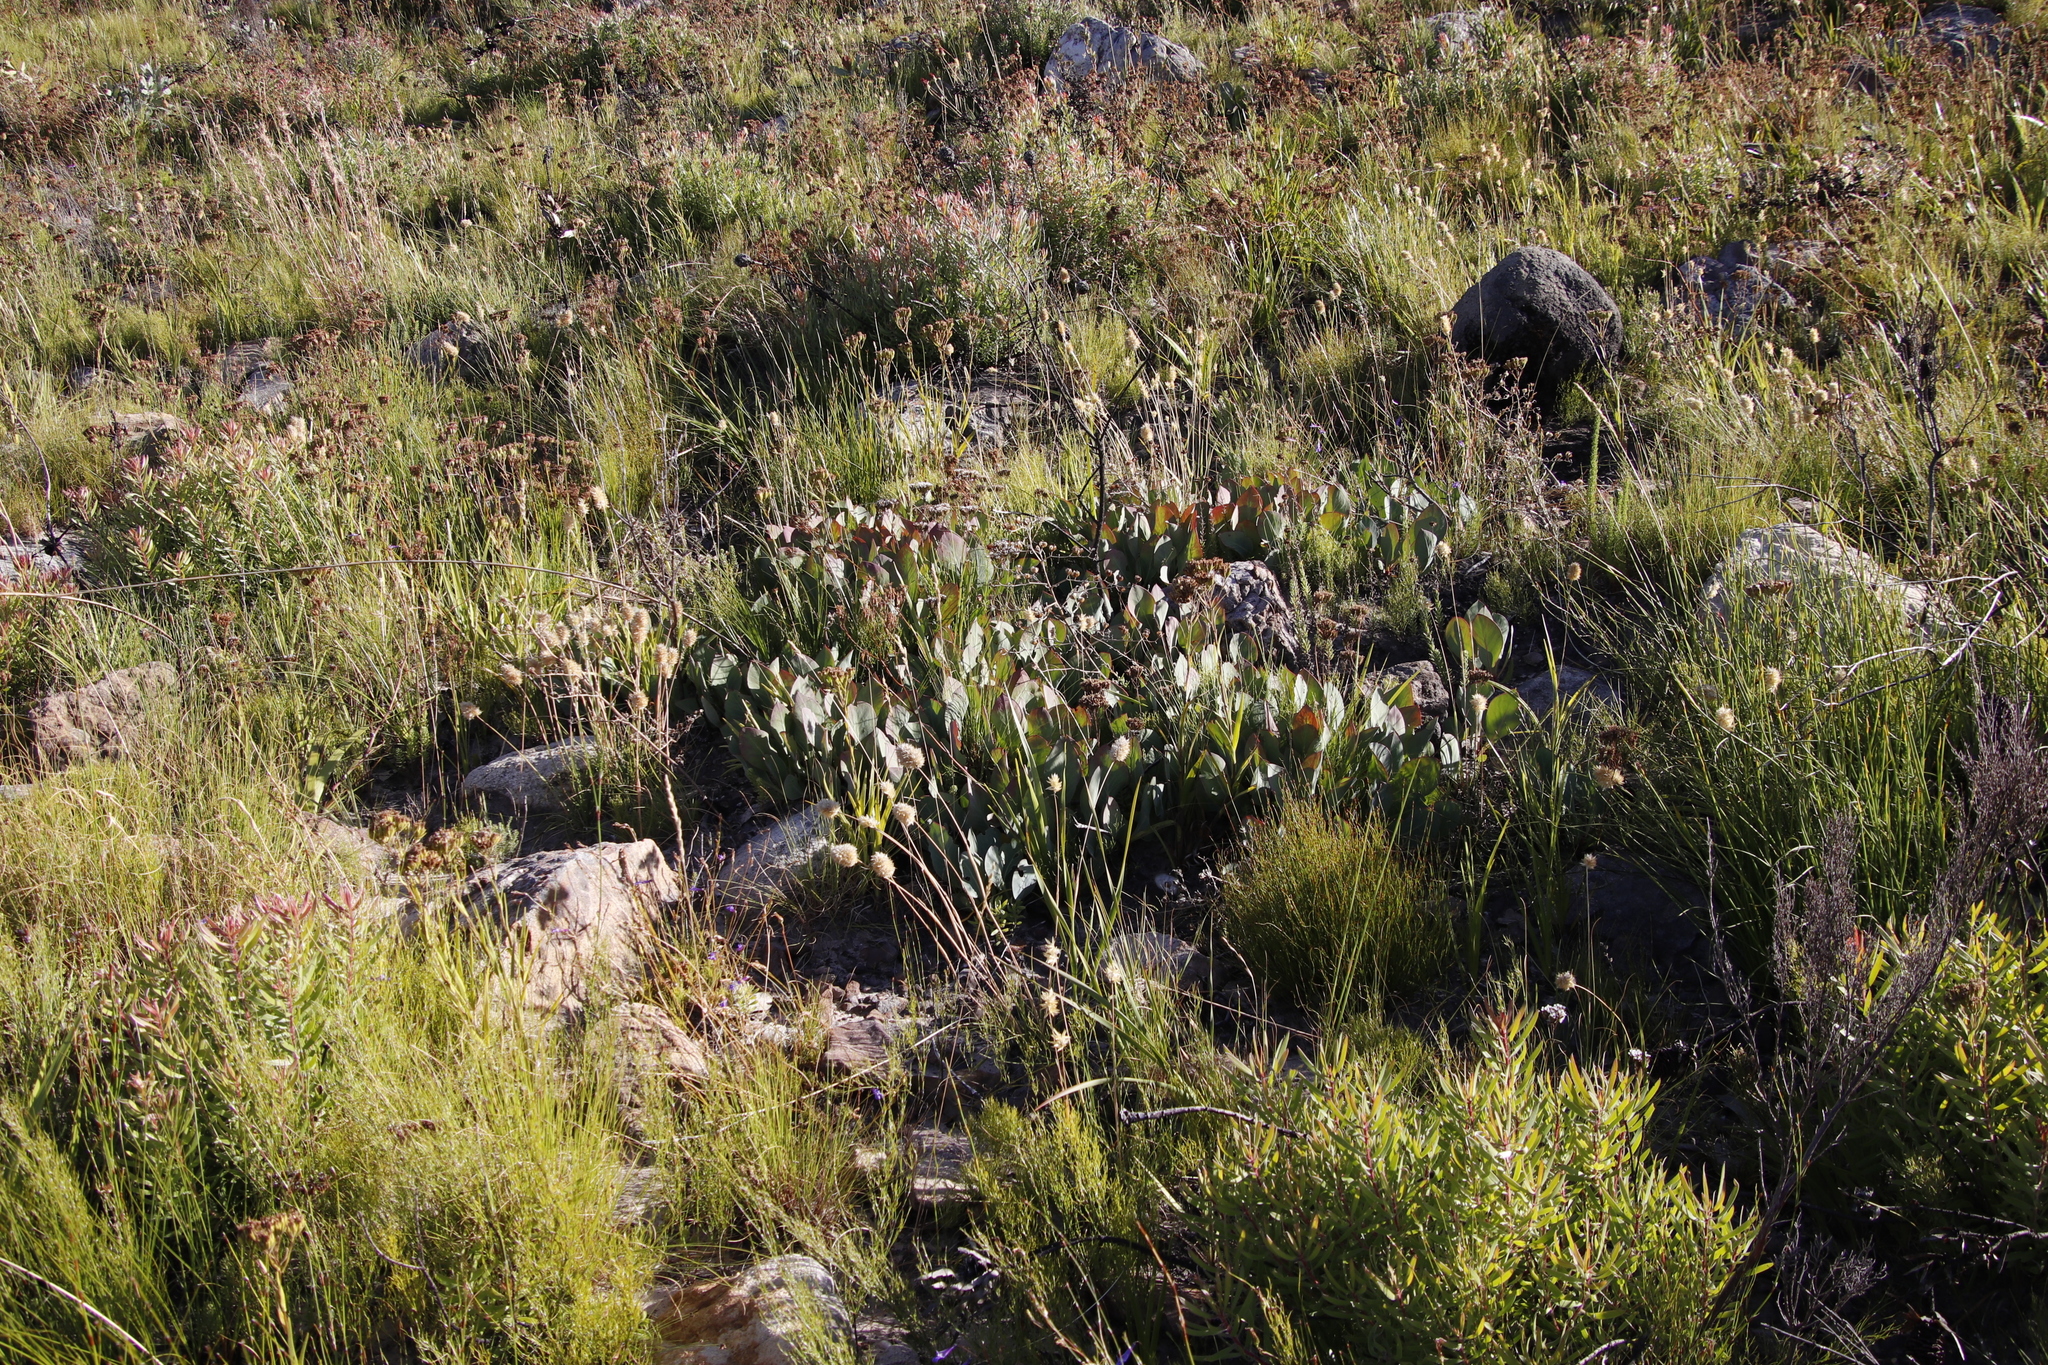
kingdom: Plantae
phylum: Tracheophyta
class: Magnoliopsida
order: Proteales
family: Proteaceae
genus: Protea
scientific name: Protea acaulos
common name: Common ground sugarbush
